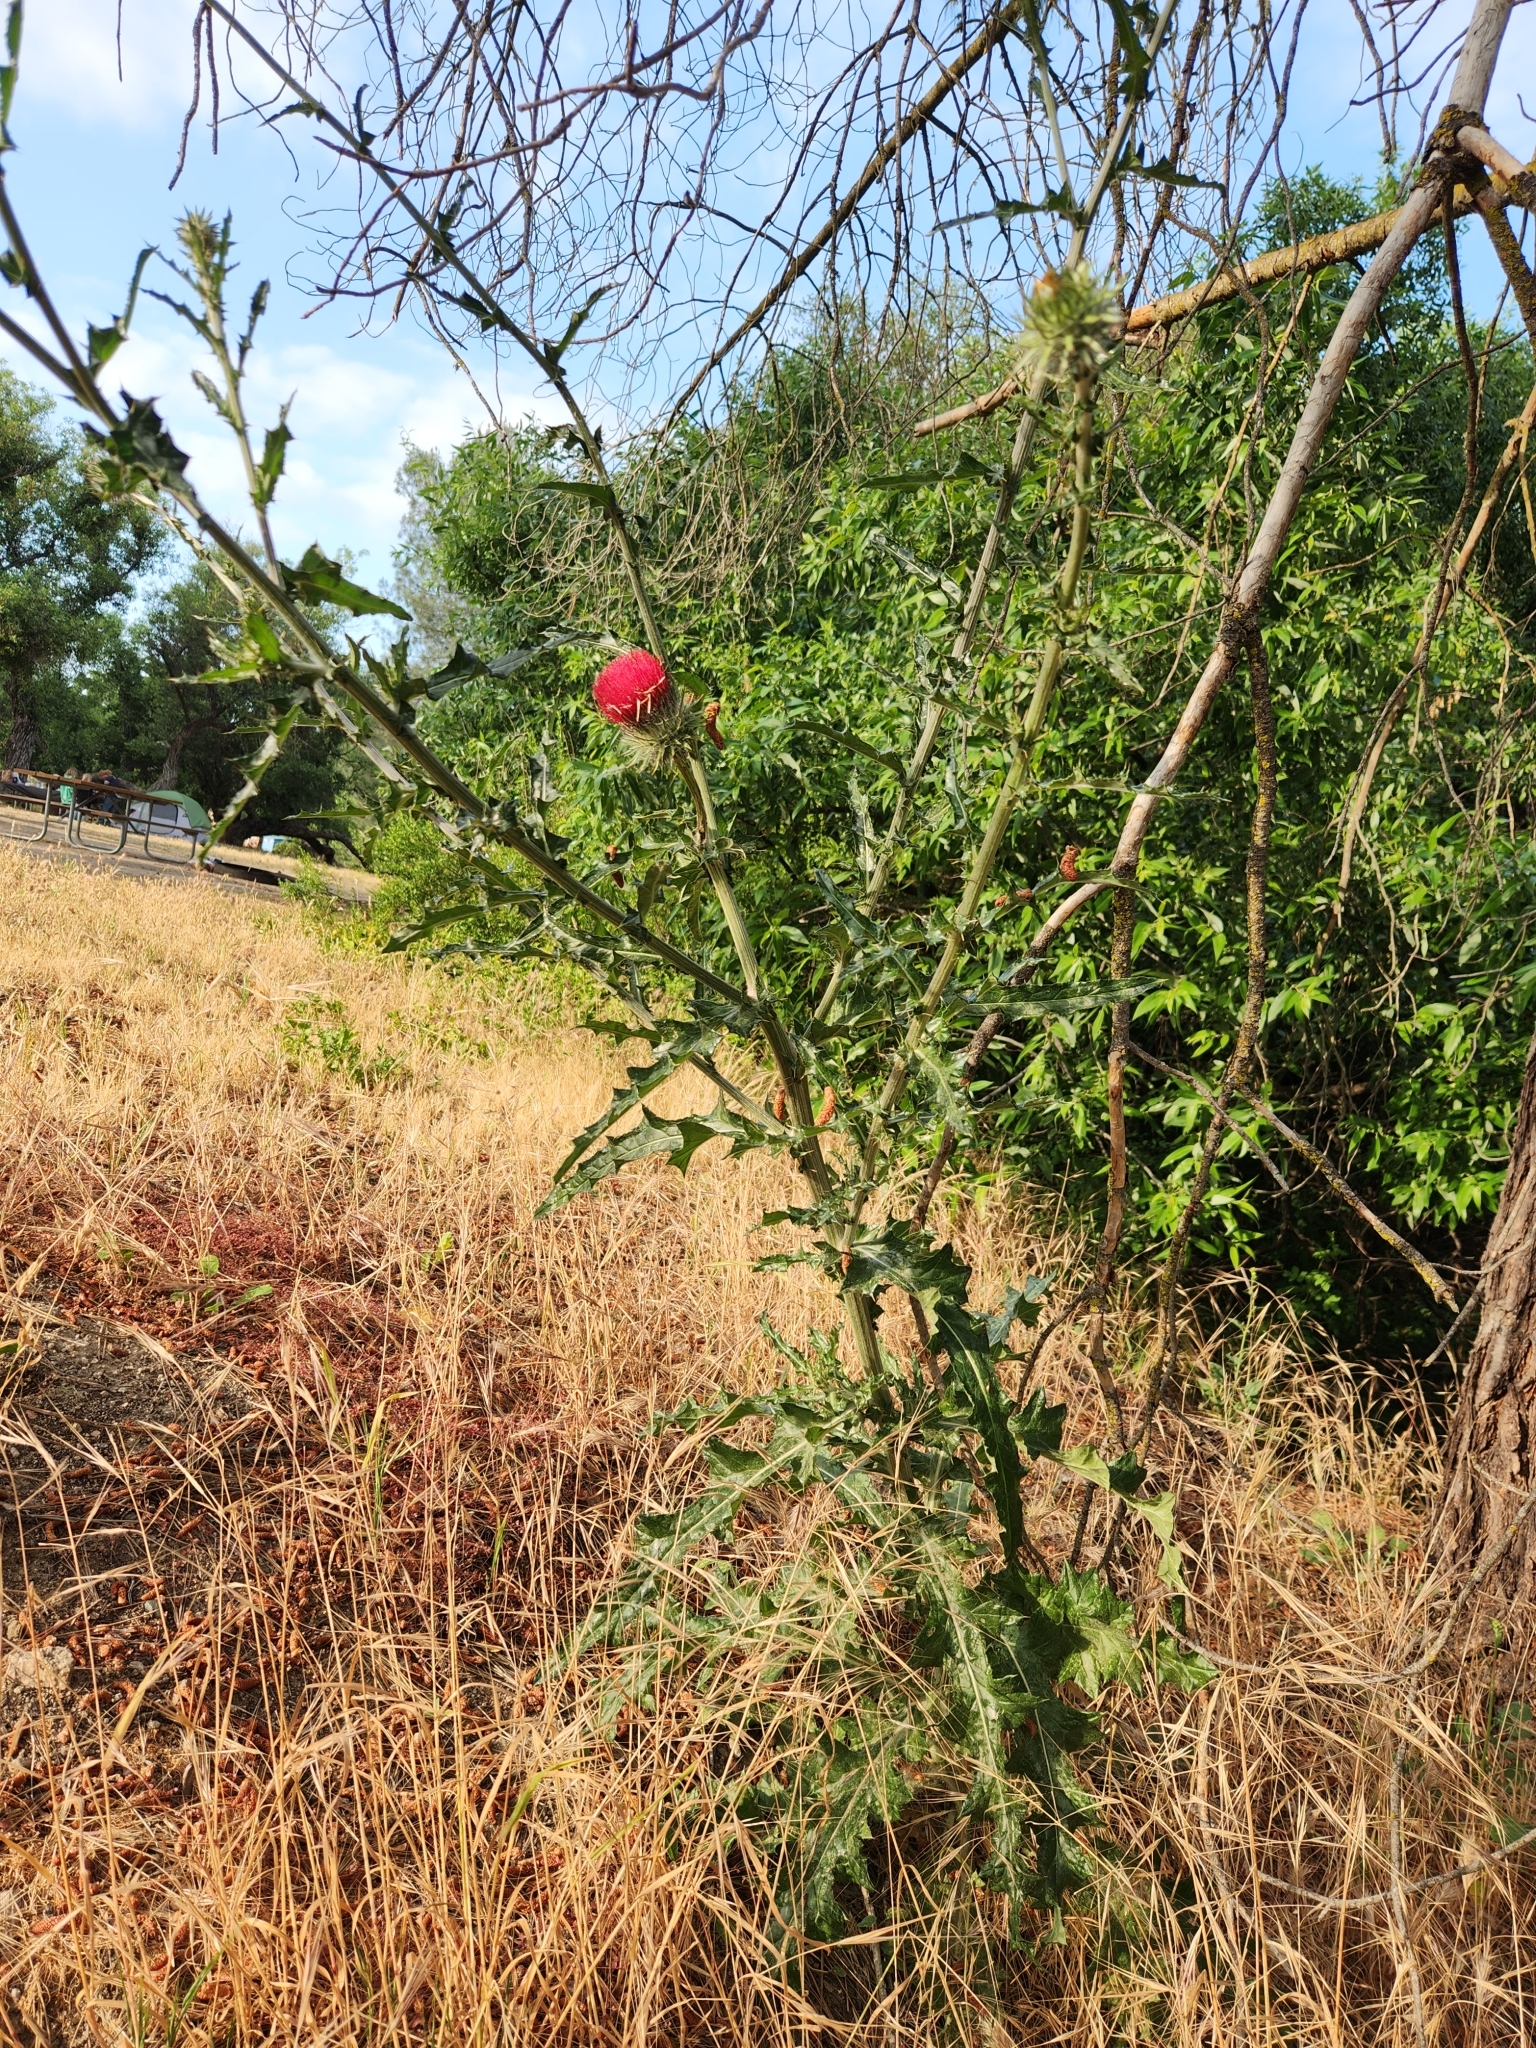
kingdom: Plantae
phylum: Tracheophyta
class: Magnoliopsida
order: Asterales
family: Asteraceae
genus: Cirsium
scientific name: Cirsium occidentale
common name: Western thistle
